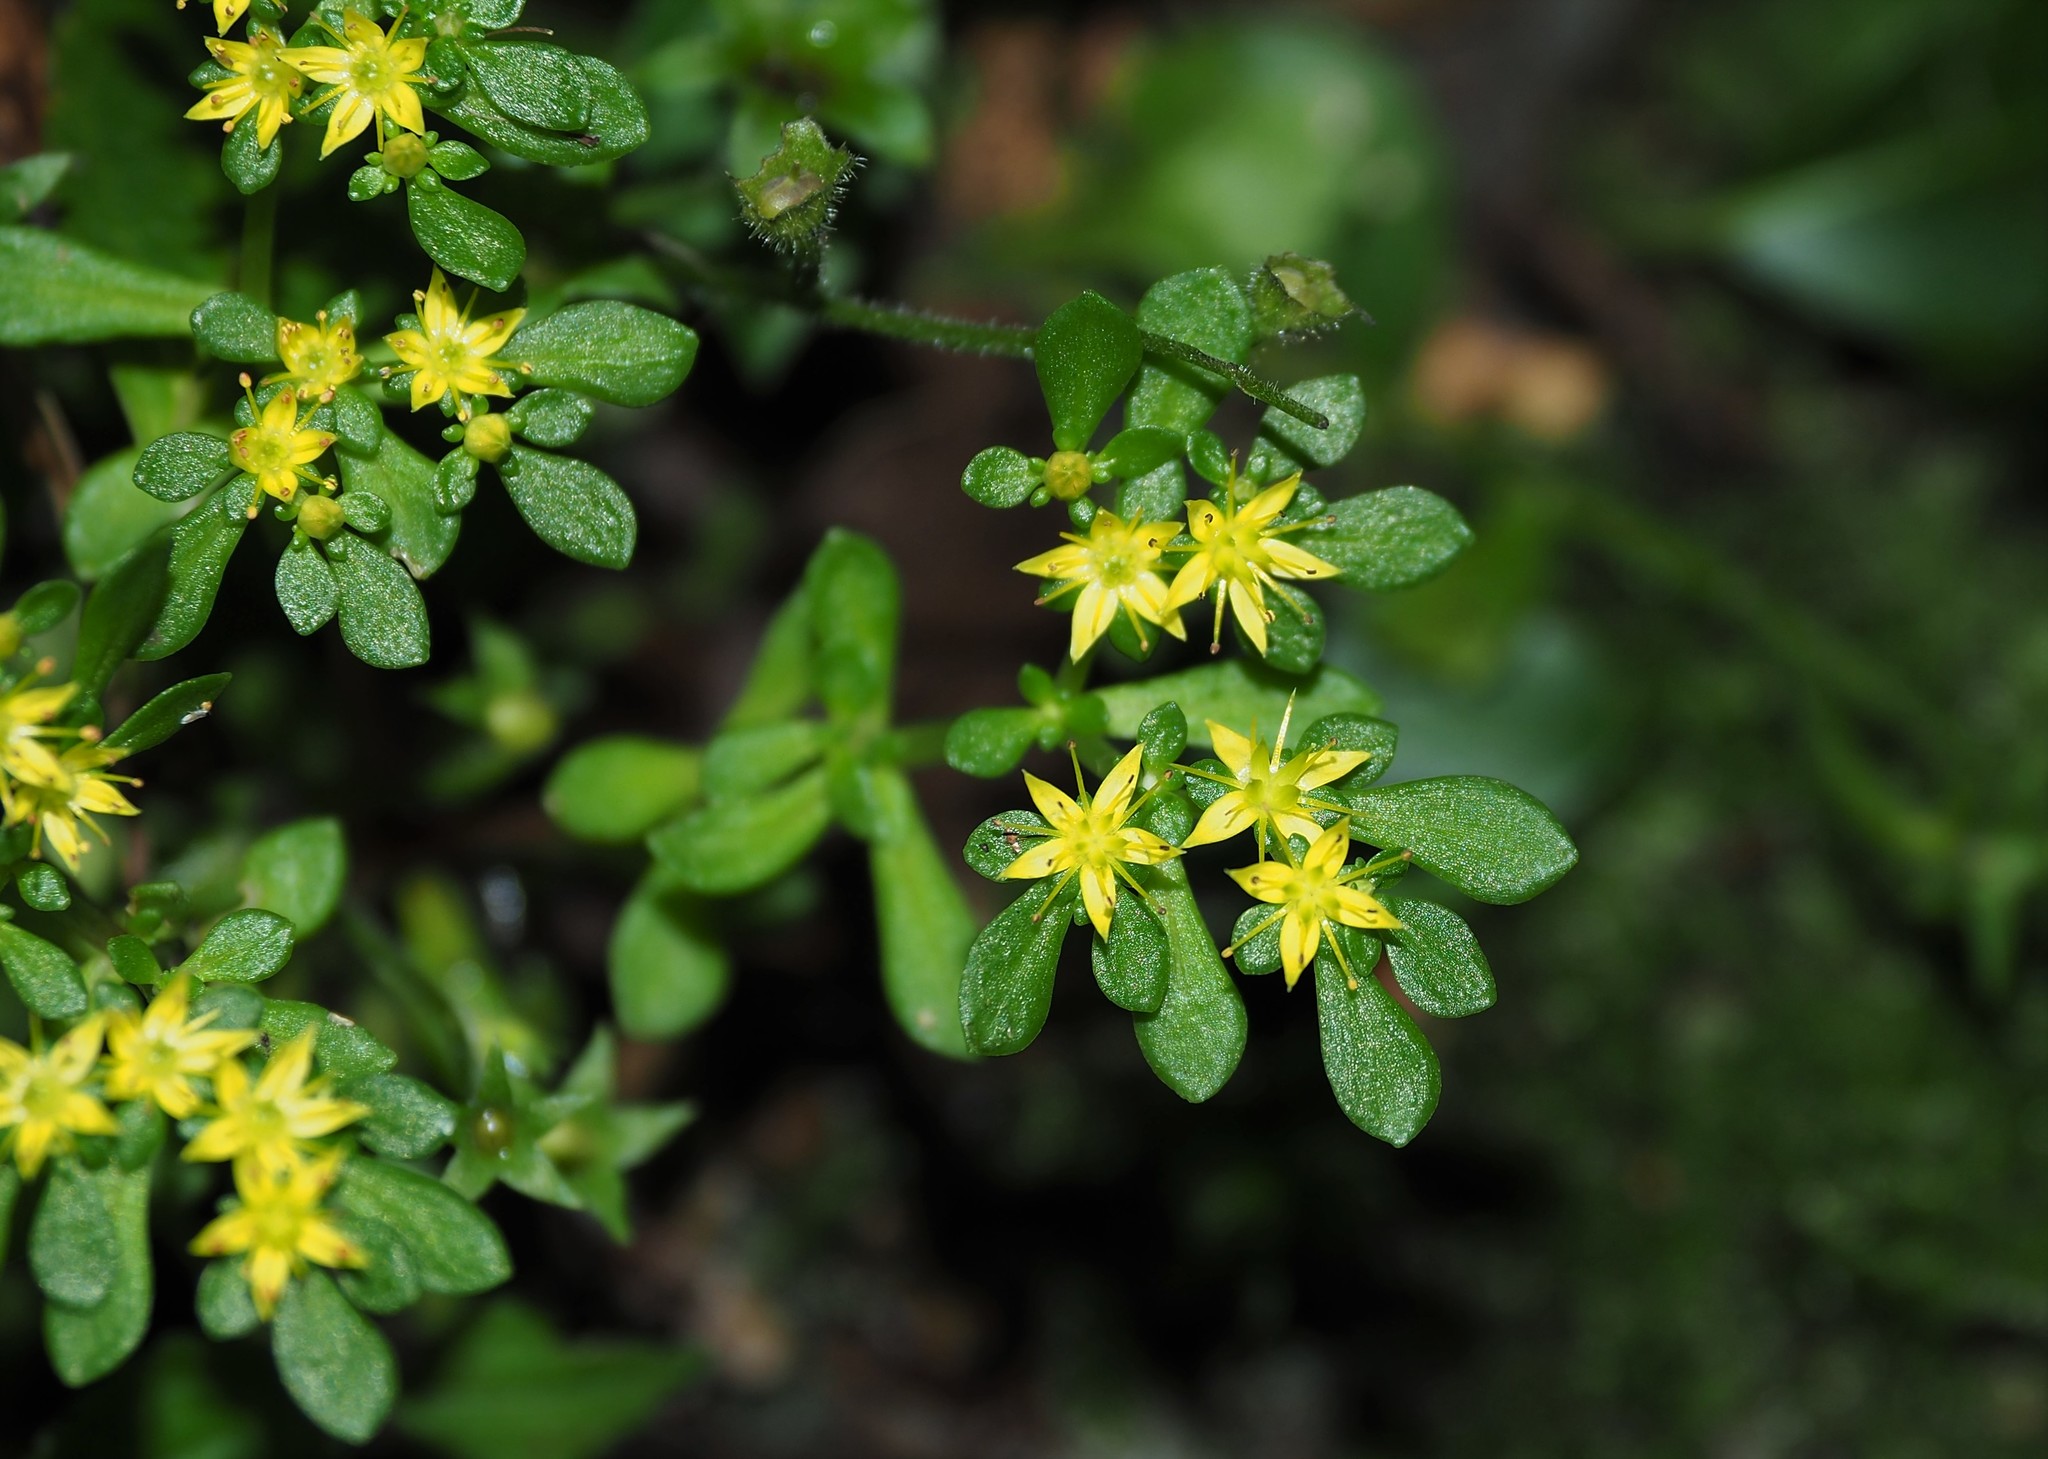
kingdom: Plantae
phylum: Tracheophyta
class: Magnoliopsida
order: Saxifragales
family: Crassulaceae
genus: Sedum
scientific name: Sedum actinocarpum
